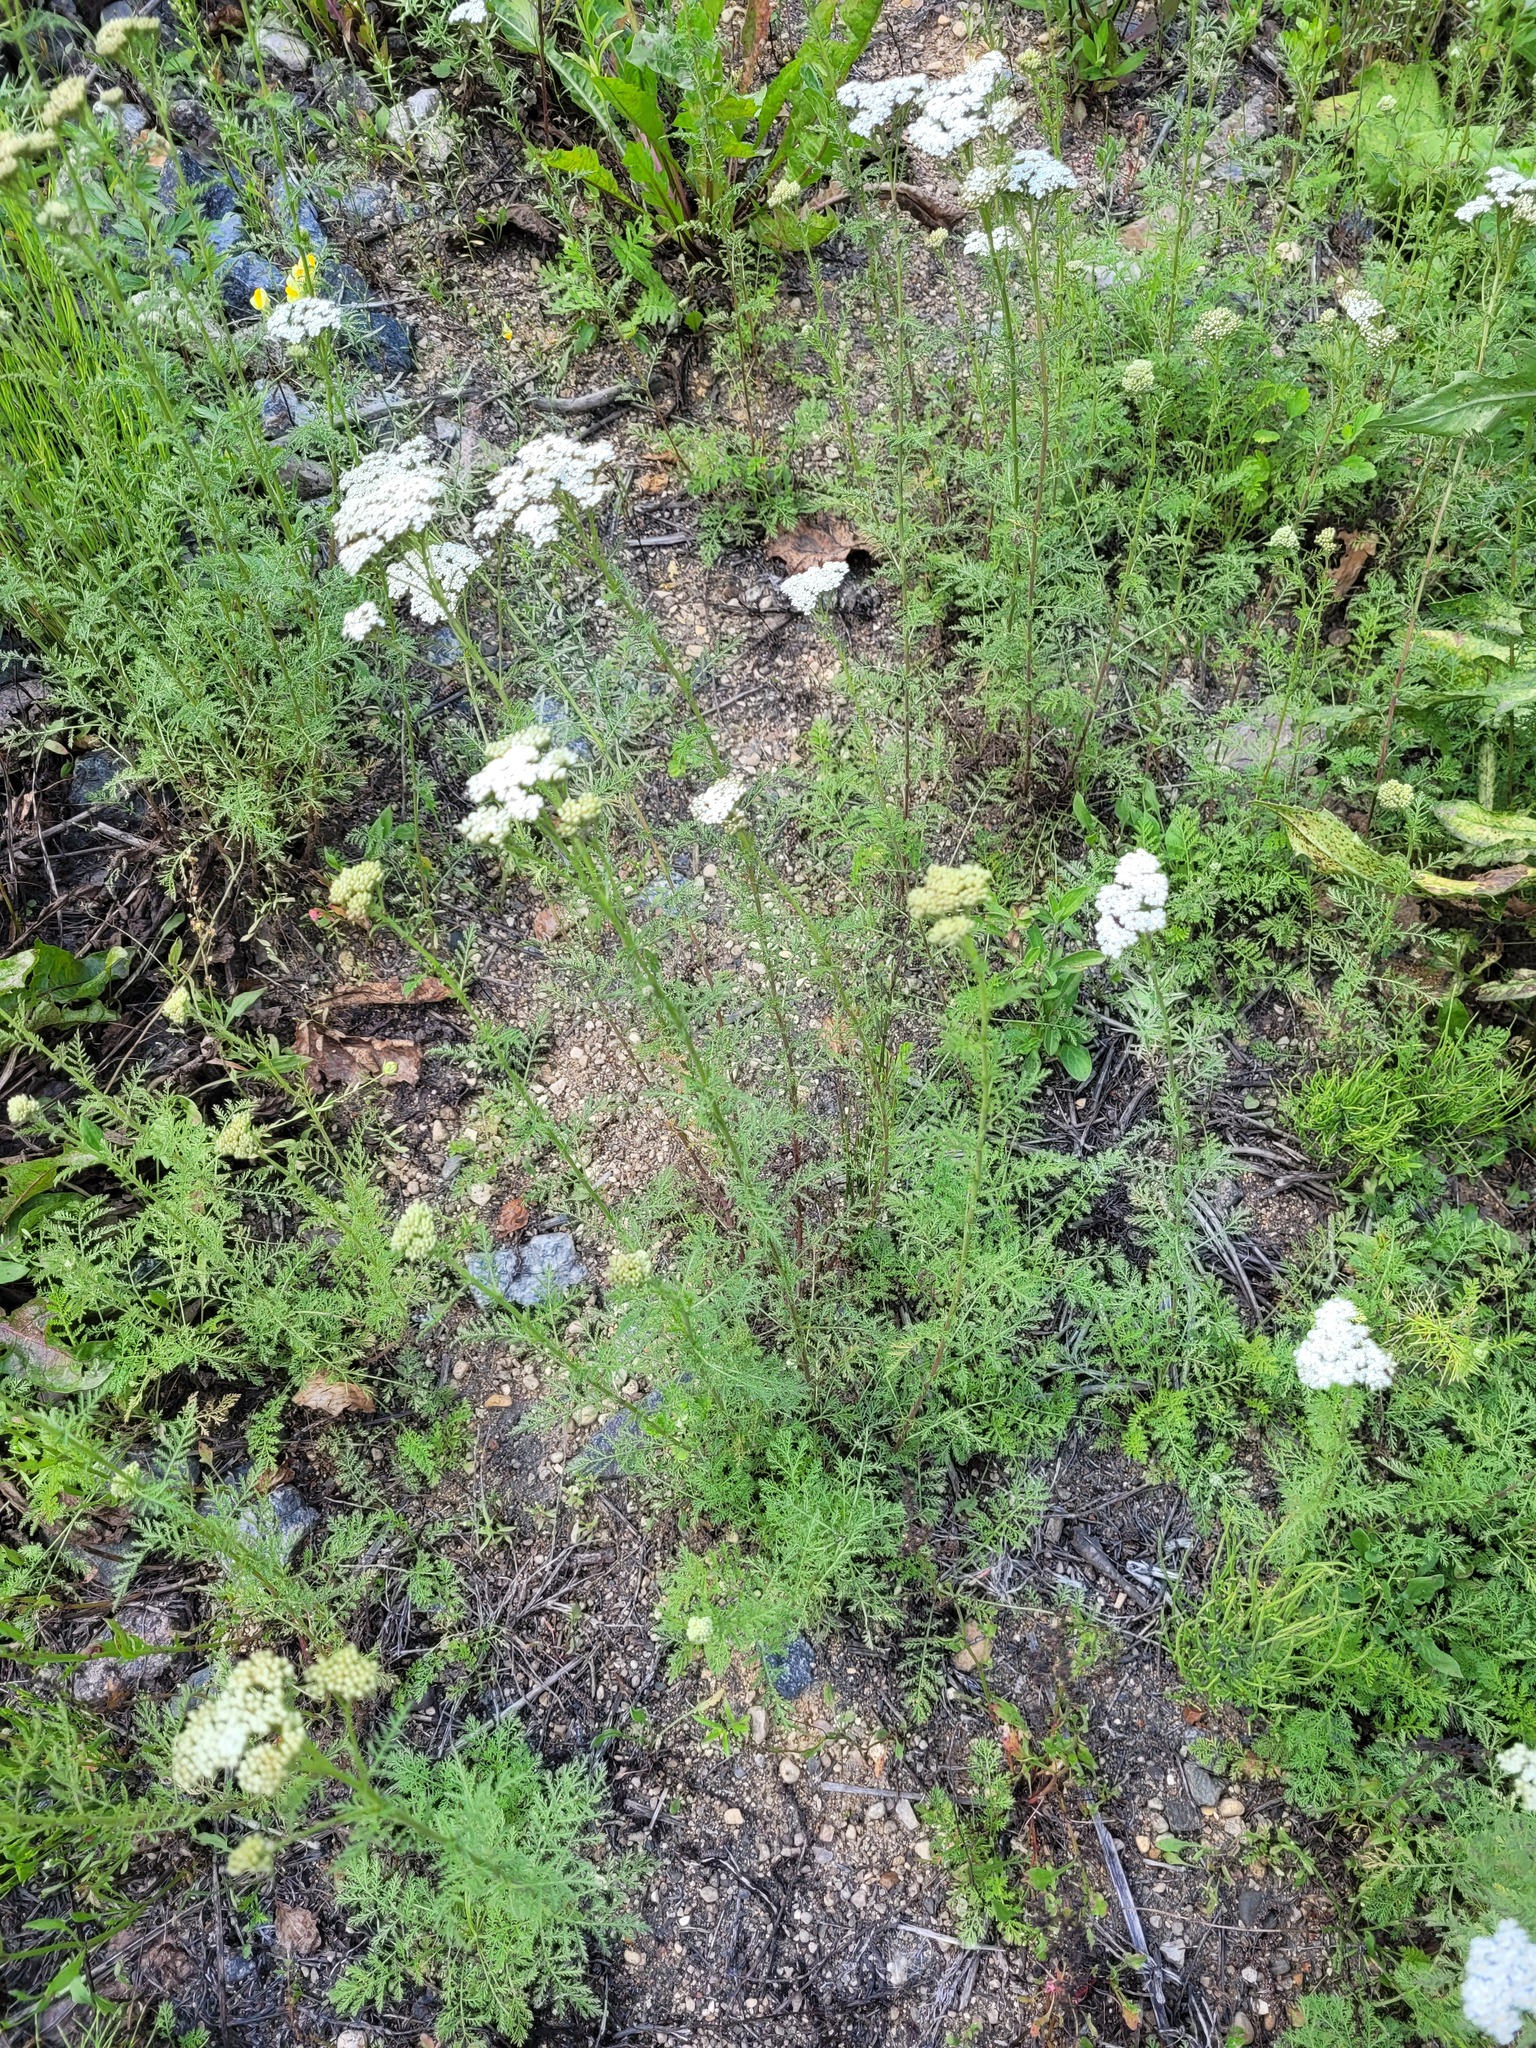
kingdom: Plantae
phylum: Tracheophyta
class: Magnoliopsida
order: Asterales
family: Asteraceae
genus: Achillea
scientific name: Achillea nobilis
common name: Noble yarrow
